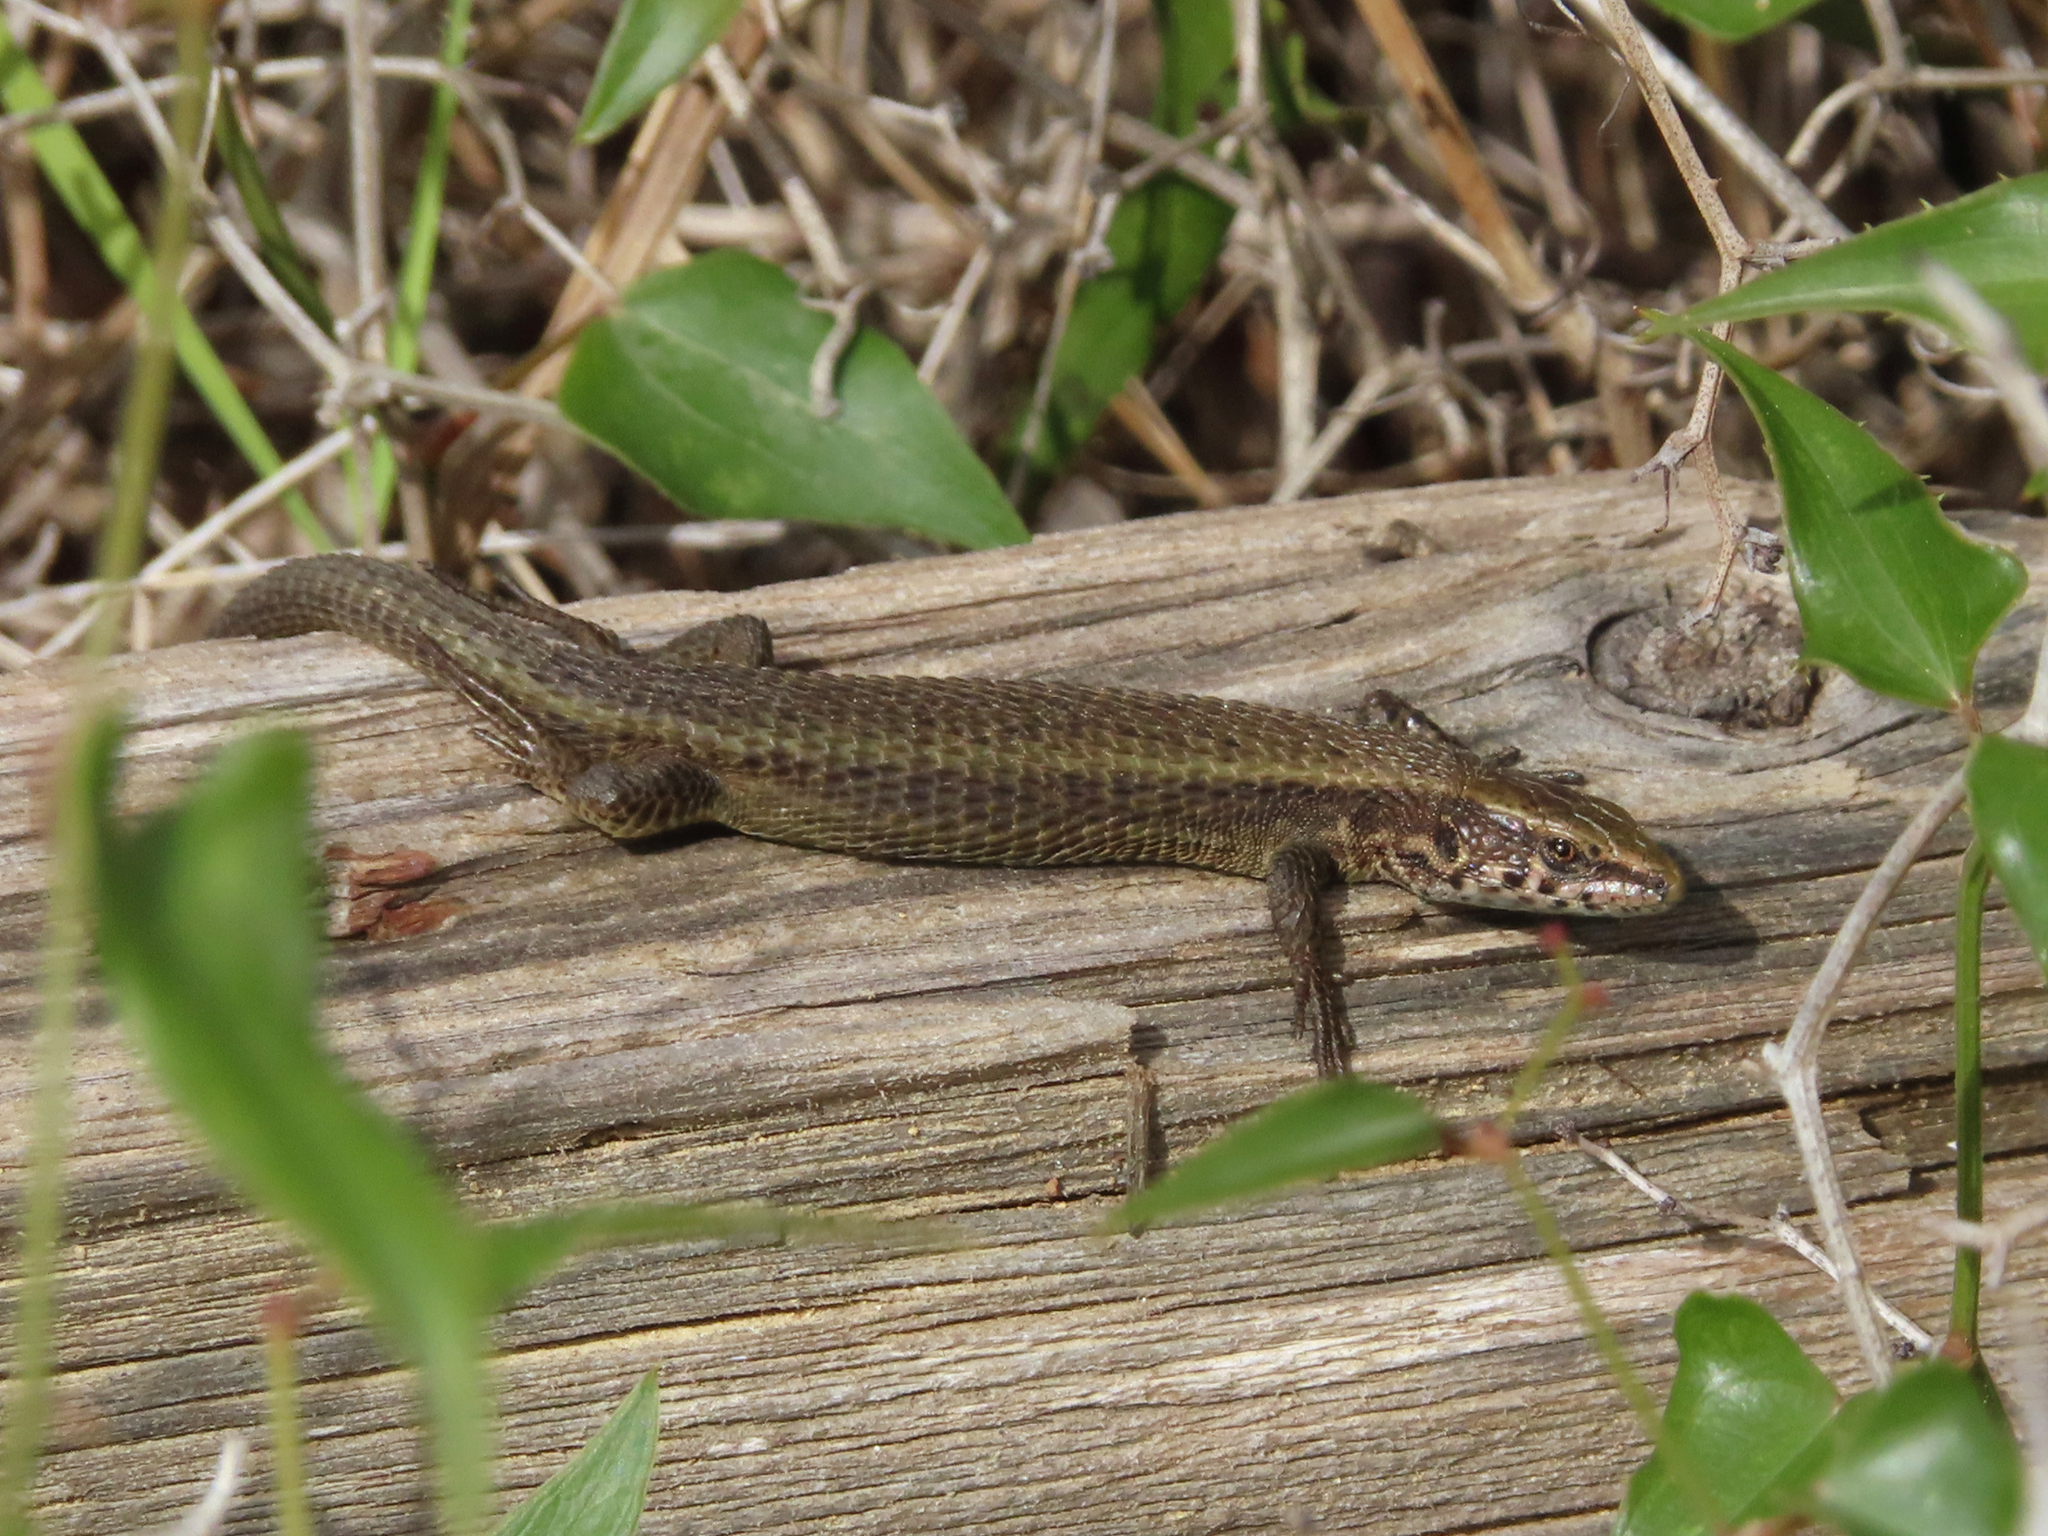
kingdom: Animalia
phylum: Chordata
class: Squamata
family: Lacertidae
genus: Algyroides
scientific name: Algyroides moreoticus
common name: Greek algyroides
